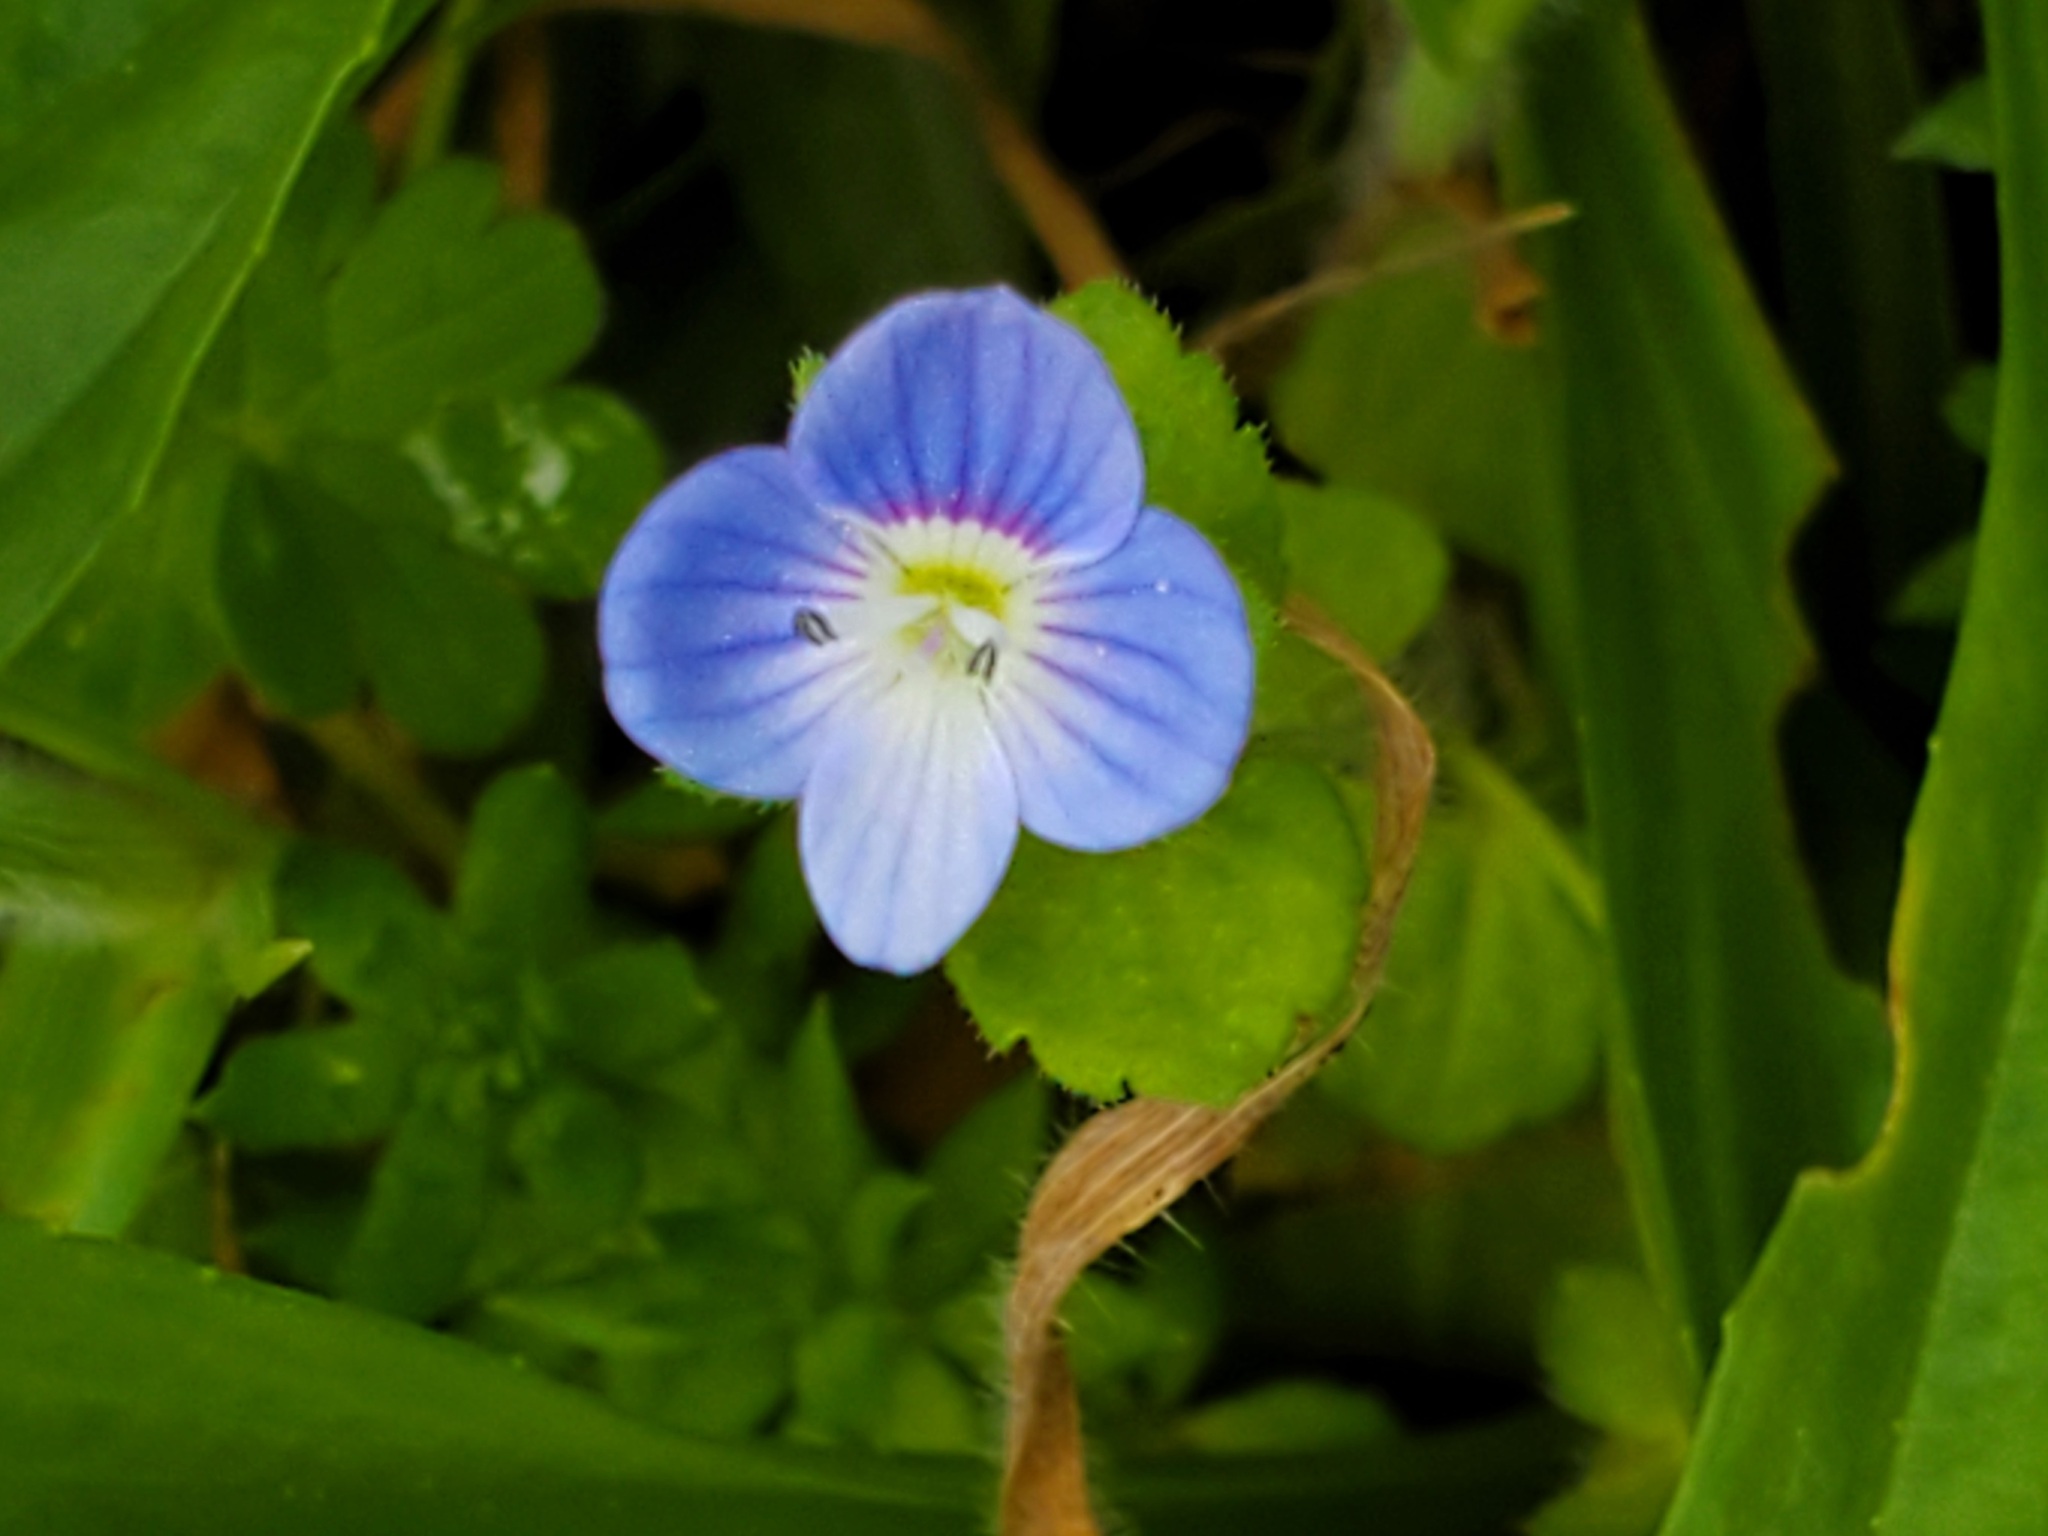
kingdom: Plantae
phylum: Tracheophyta
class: Magnoliopsida
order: Lamiales
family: Plantaginaceae
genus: Veronica
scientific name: Veronica persica
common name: Common field-speedwell
